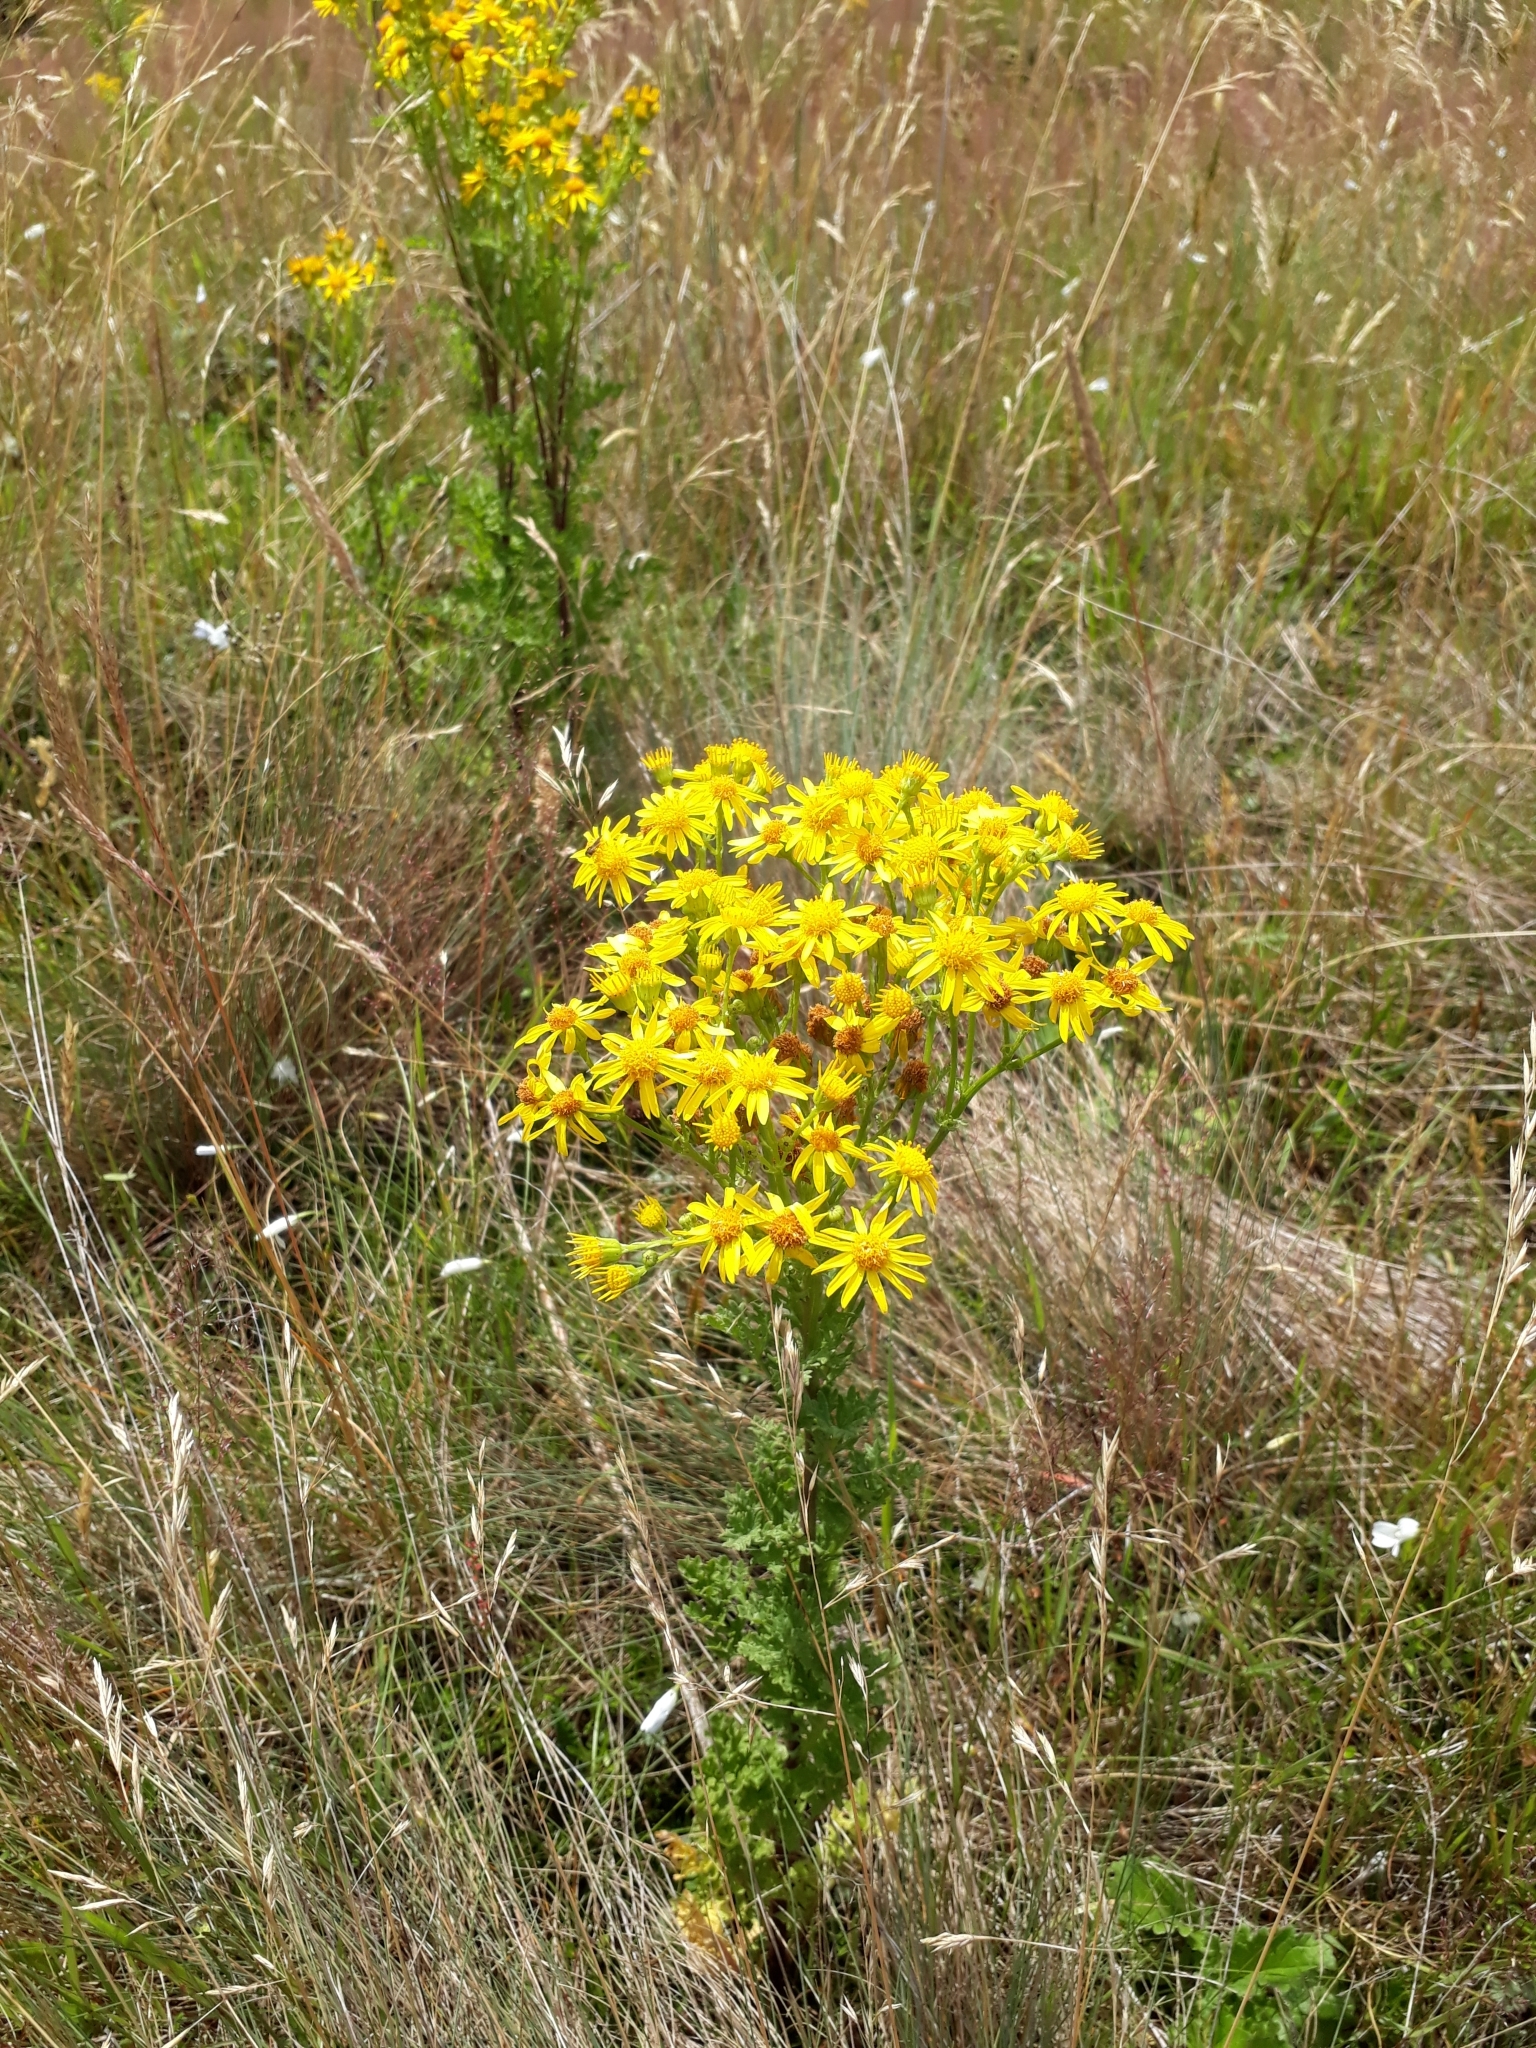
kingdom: Plantae
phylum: Tracheophyta
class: Magnoliopsida
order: Asterales
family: Asteraceae
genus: Jacobaea
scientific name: Jacobaea vulgaris
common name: Stinking willie
